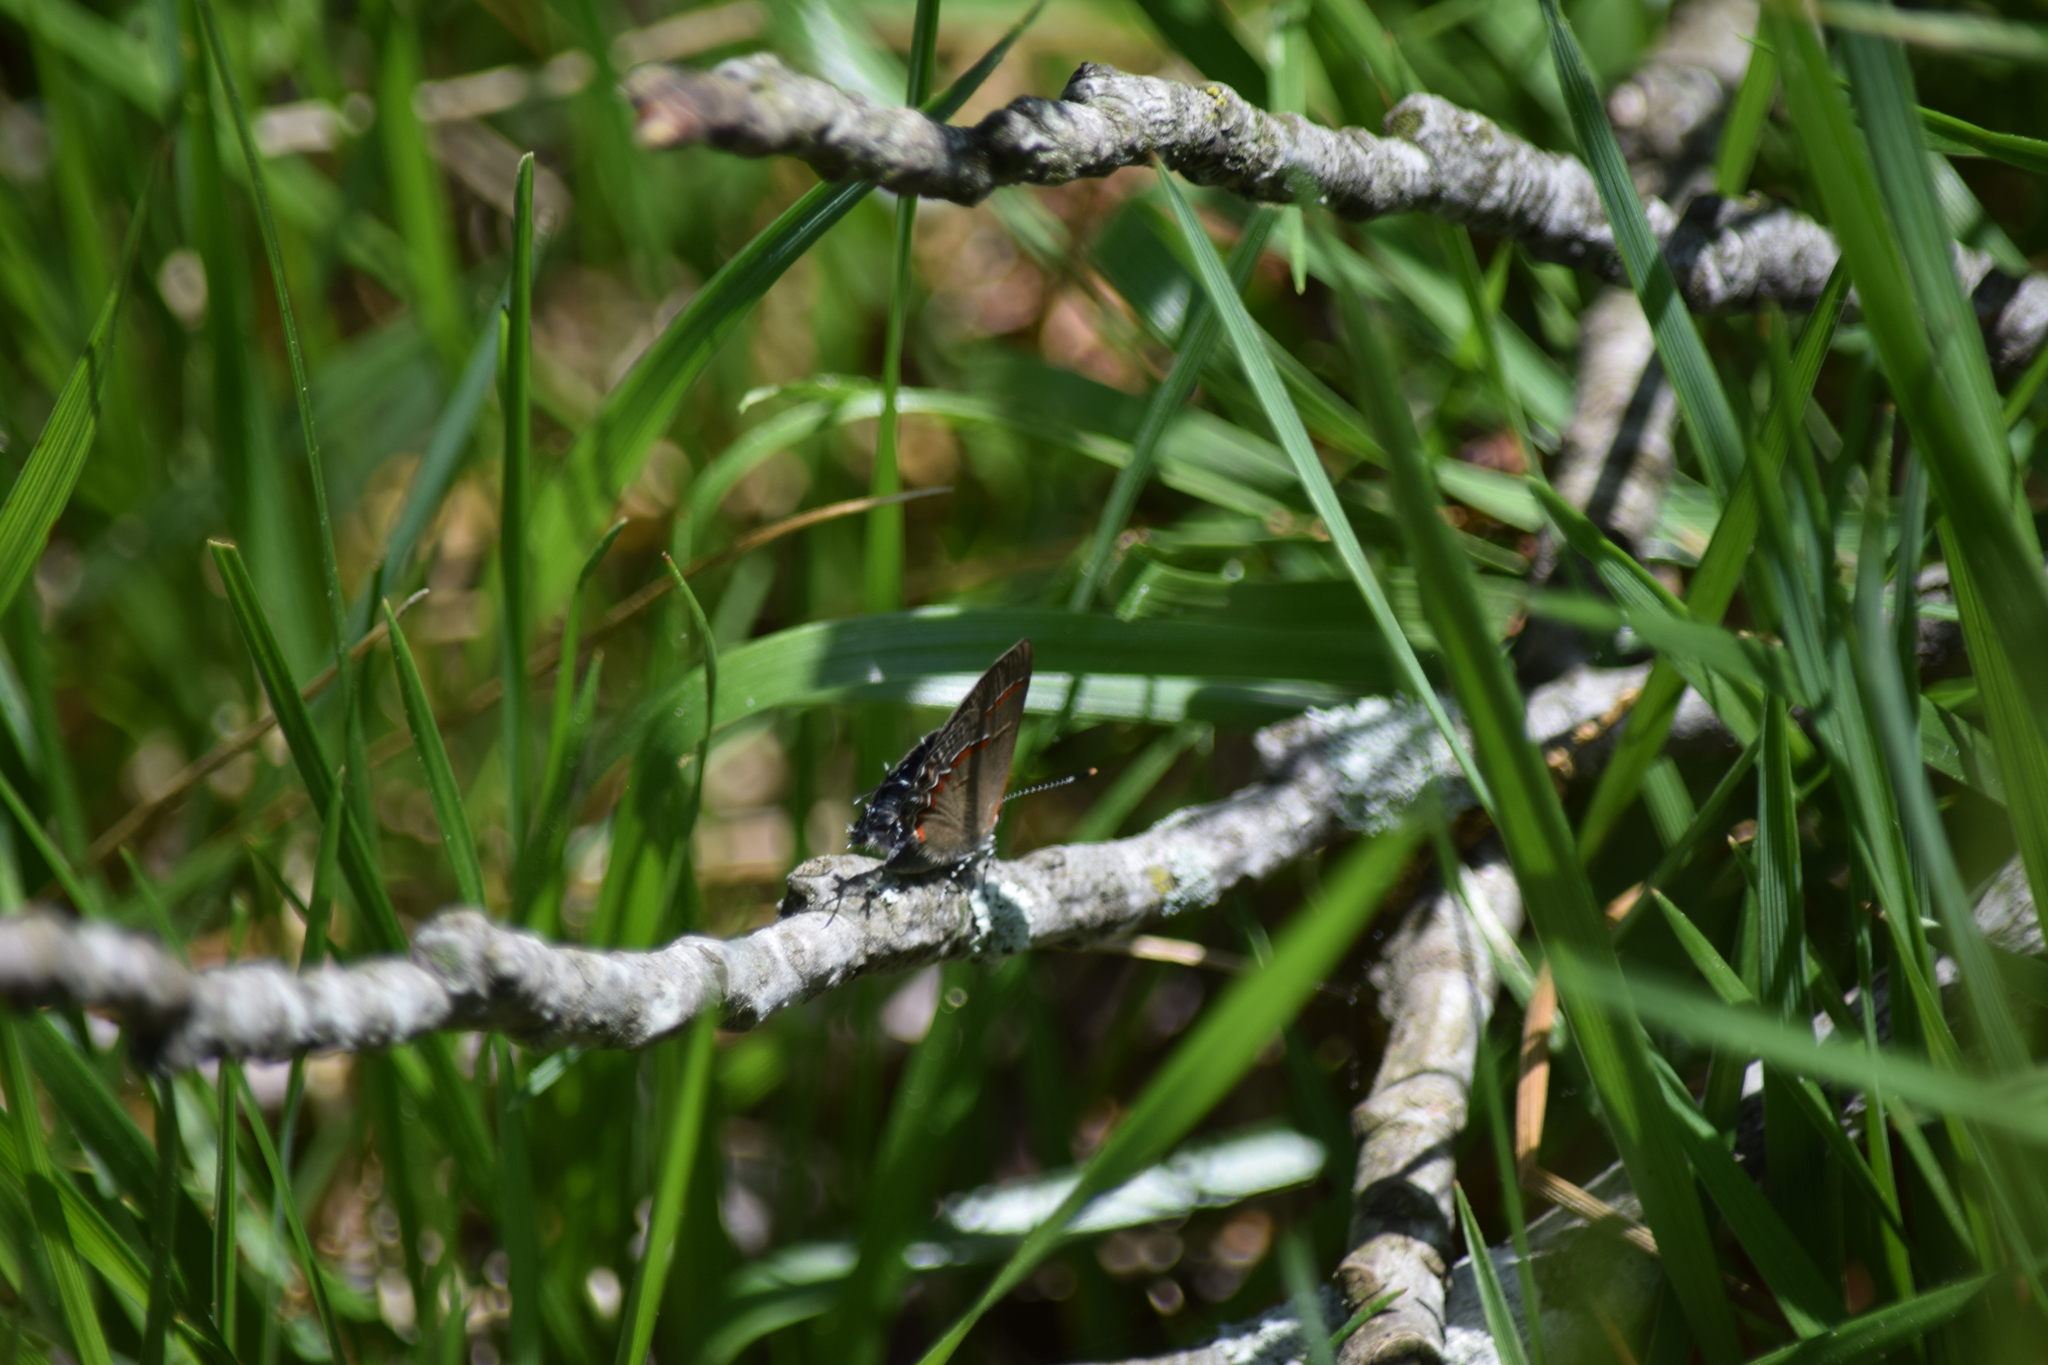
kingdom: Animalia
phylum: Arthropoda
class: Insecta
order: Lepidoptera
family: Lycaenidae
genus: Calycopis
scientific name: Calycopis cecrops
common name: Red-banded hairstreak
